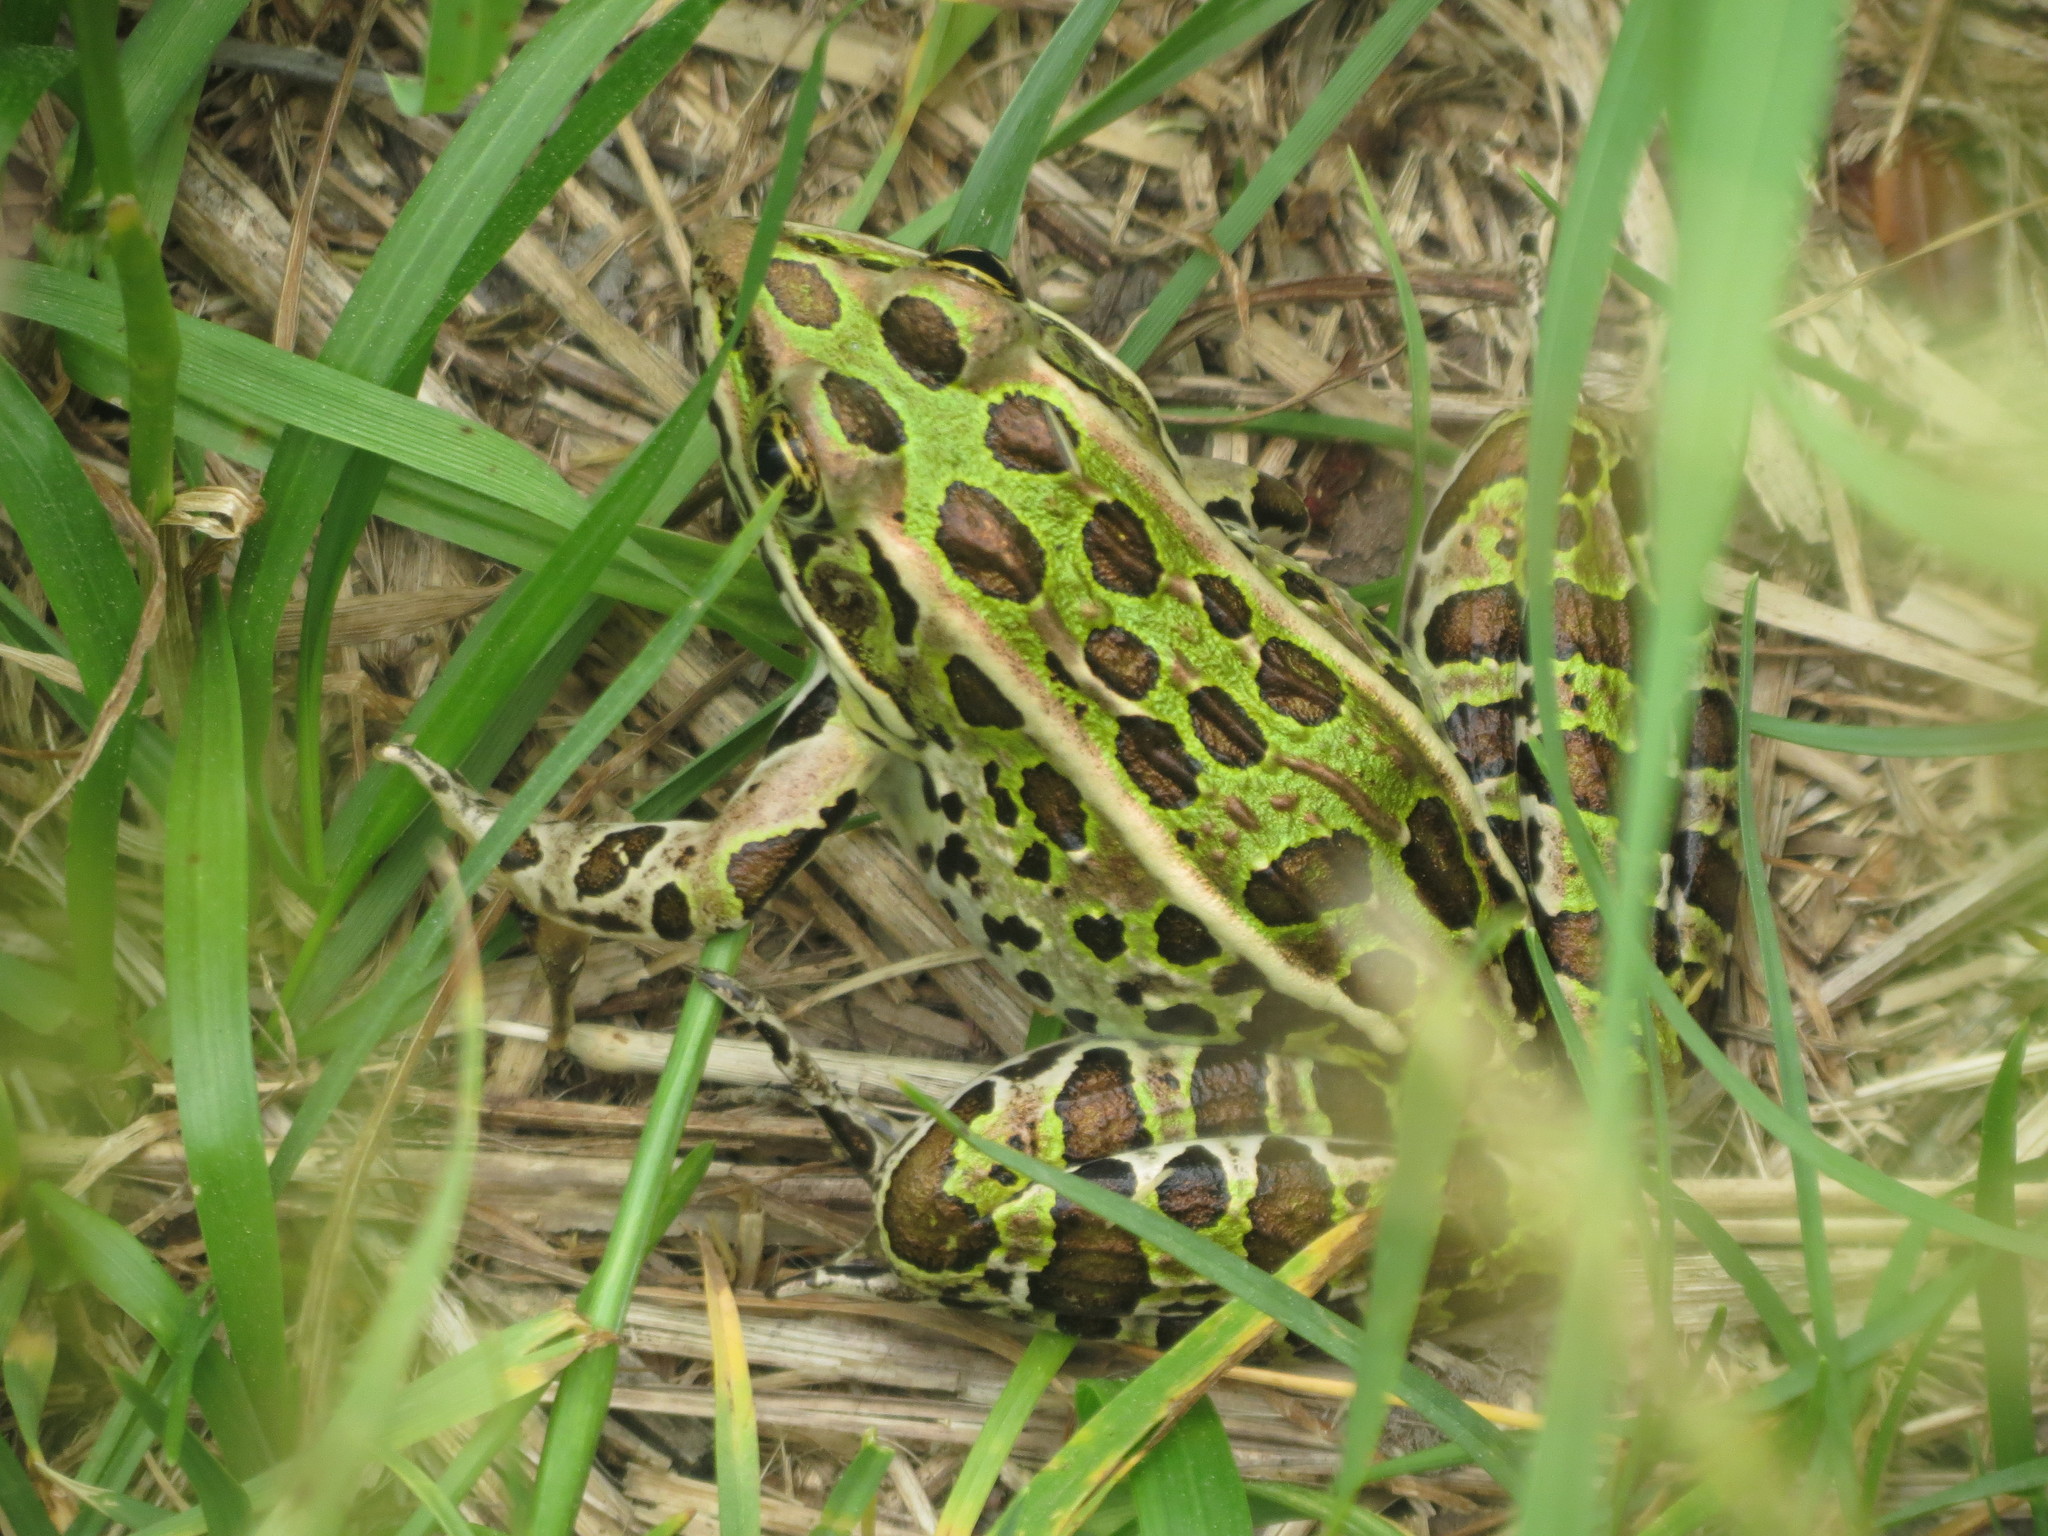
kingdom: Animalia
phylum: Chordata
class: Amphibia
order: Anura
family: Ranidae
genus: Lithobates
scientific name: Lithobates pipiens
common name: Northern leopard frog
